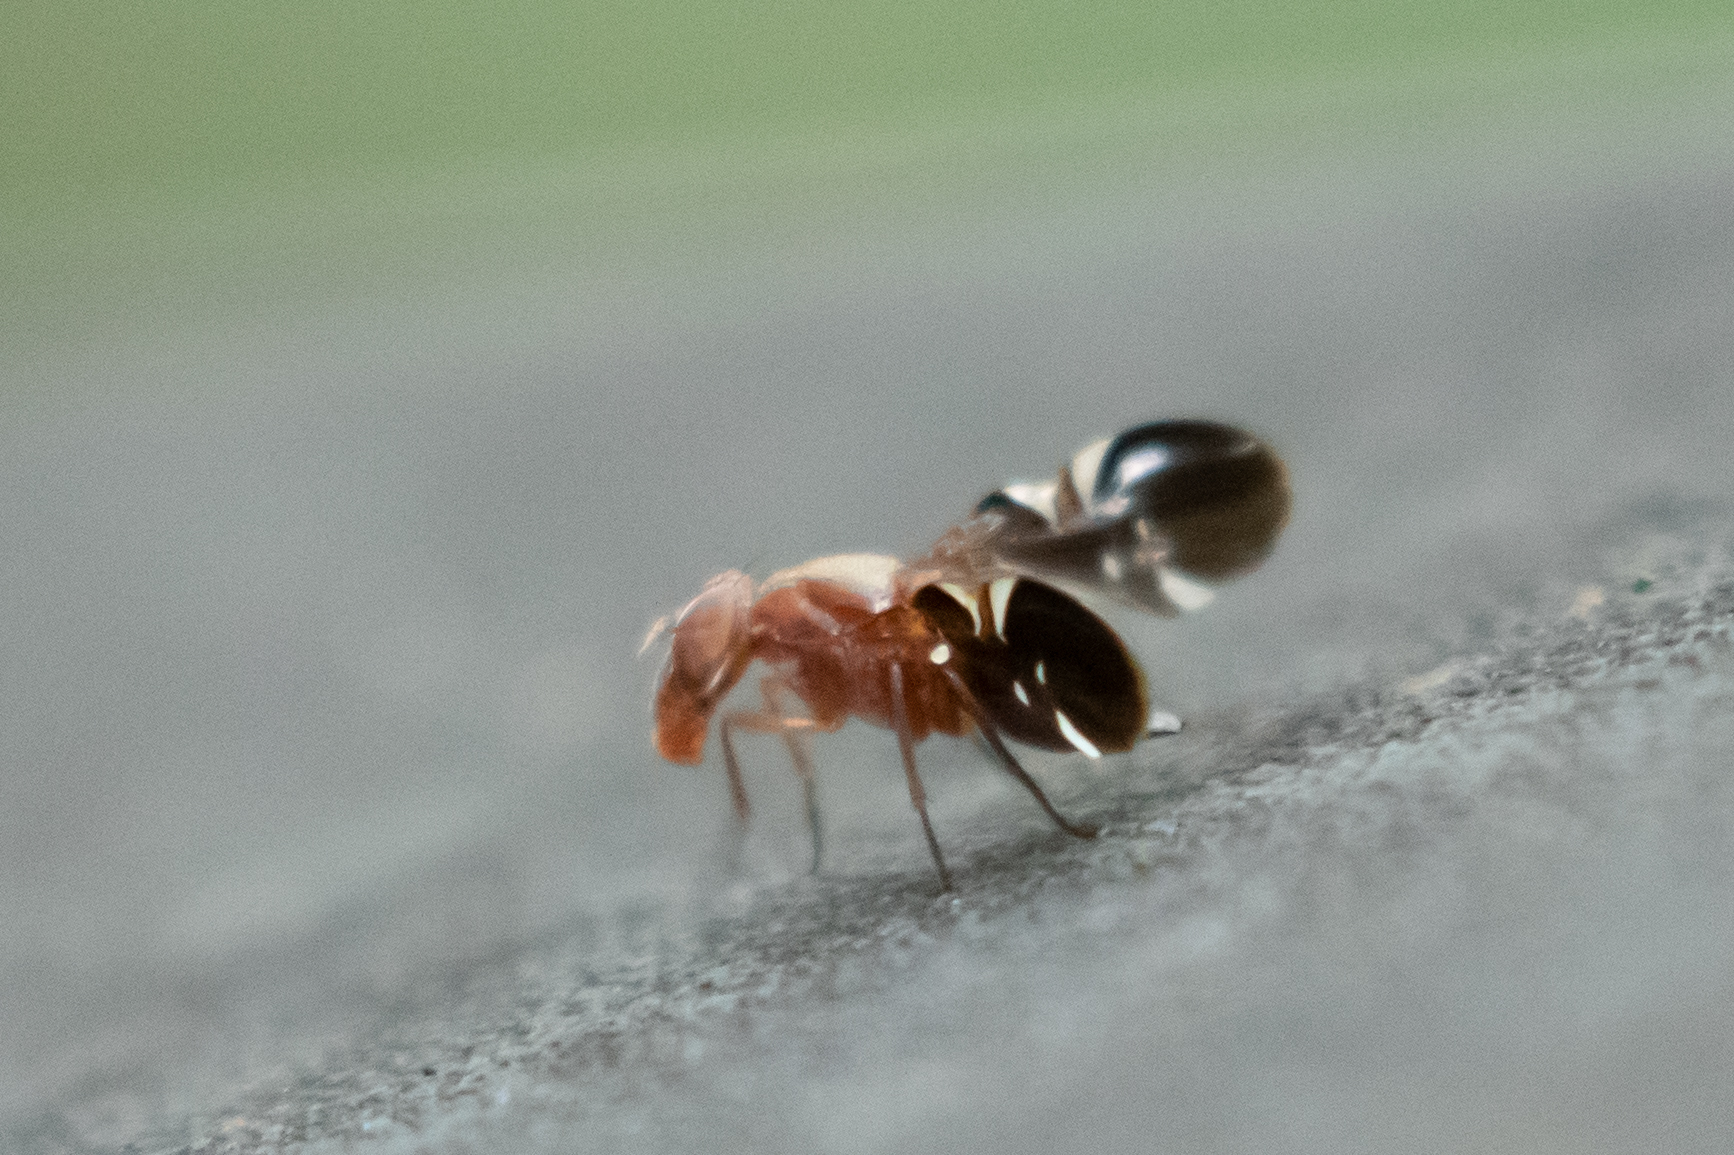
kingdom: Animalia
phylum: Arthropoda
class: Insecta
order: Diptera
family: Ulidiidae
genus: Delphinia
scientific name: Delphinia picta
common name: Common picture-winged fly
